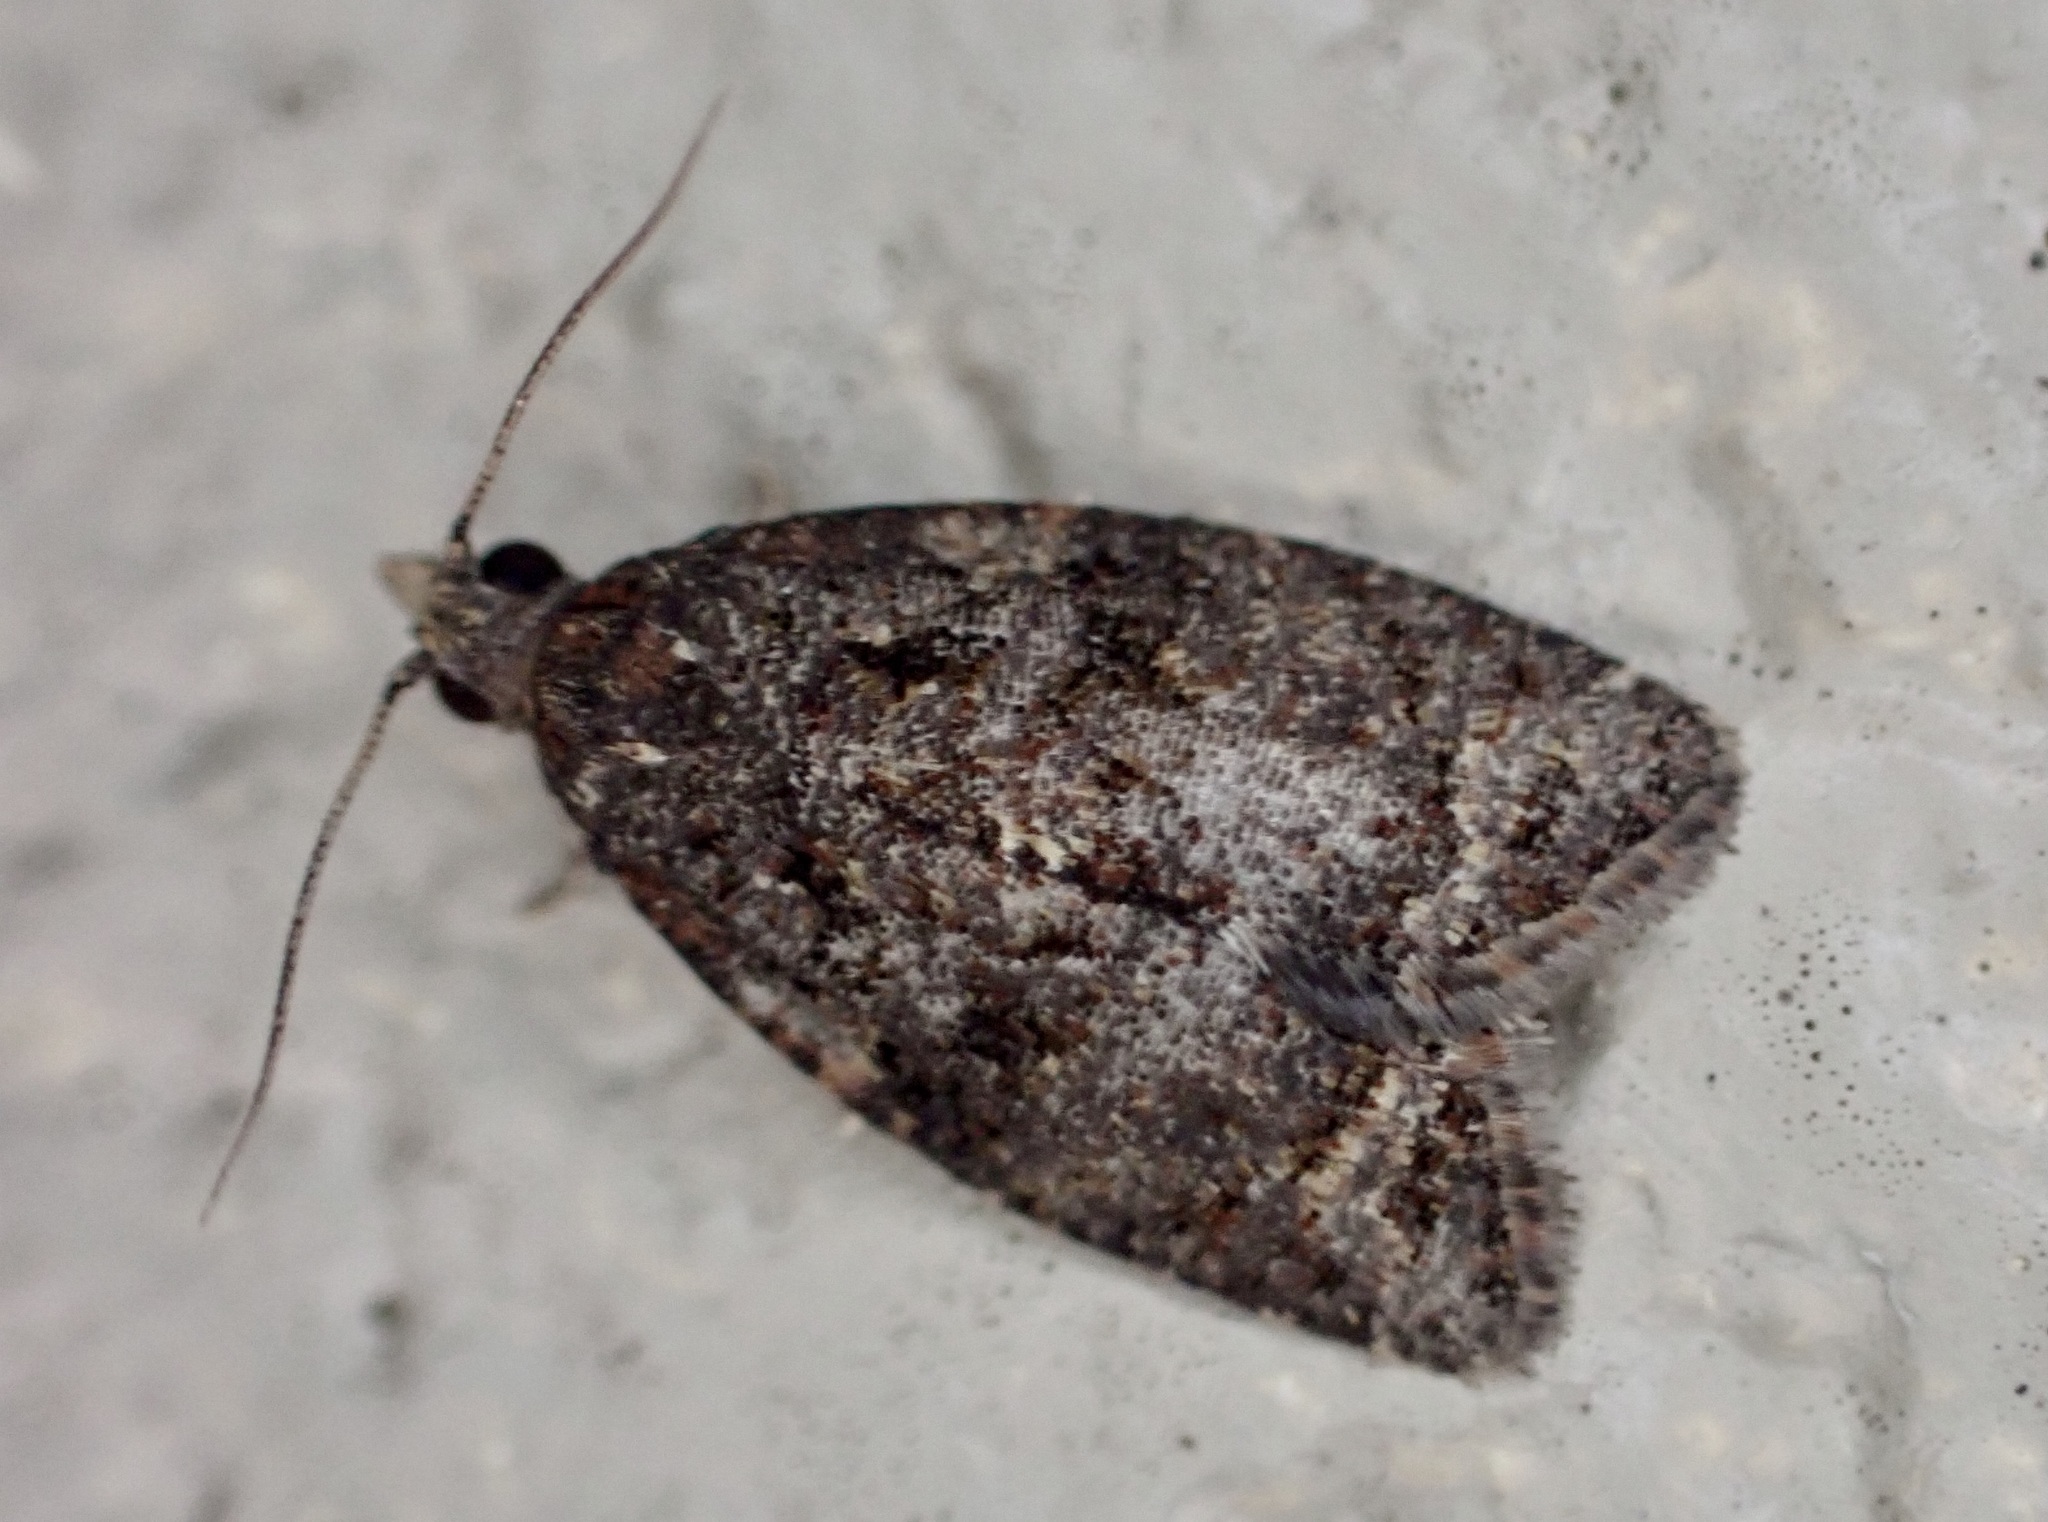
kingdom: Animalia
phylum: Arthropoda
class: Insecta
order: Lepidoptera
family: Tortricidae
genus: Capua
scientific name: Capua intractana
